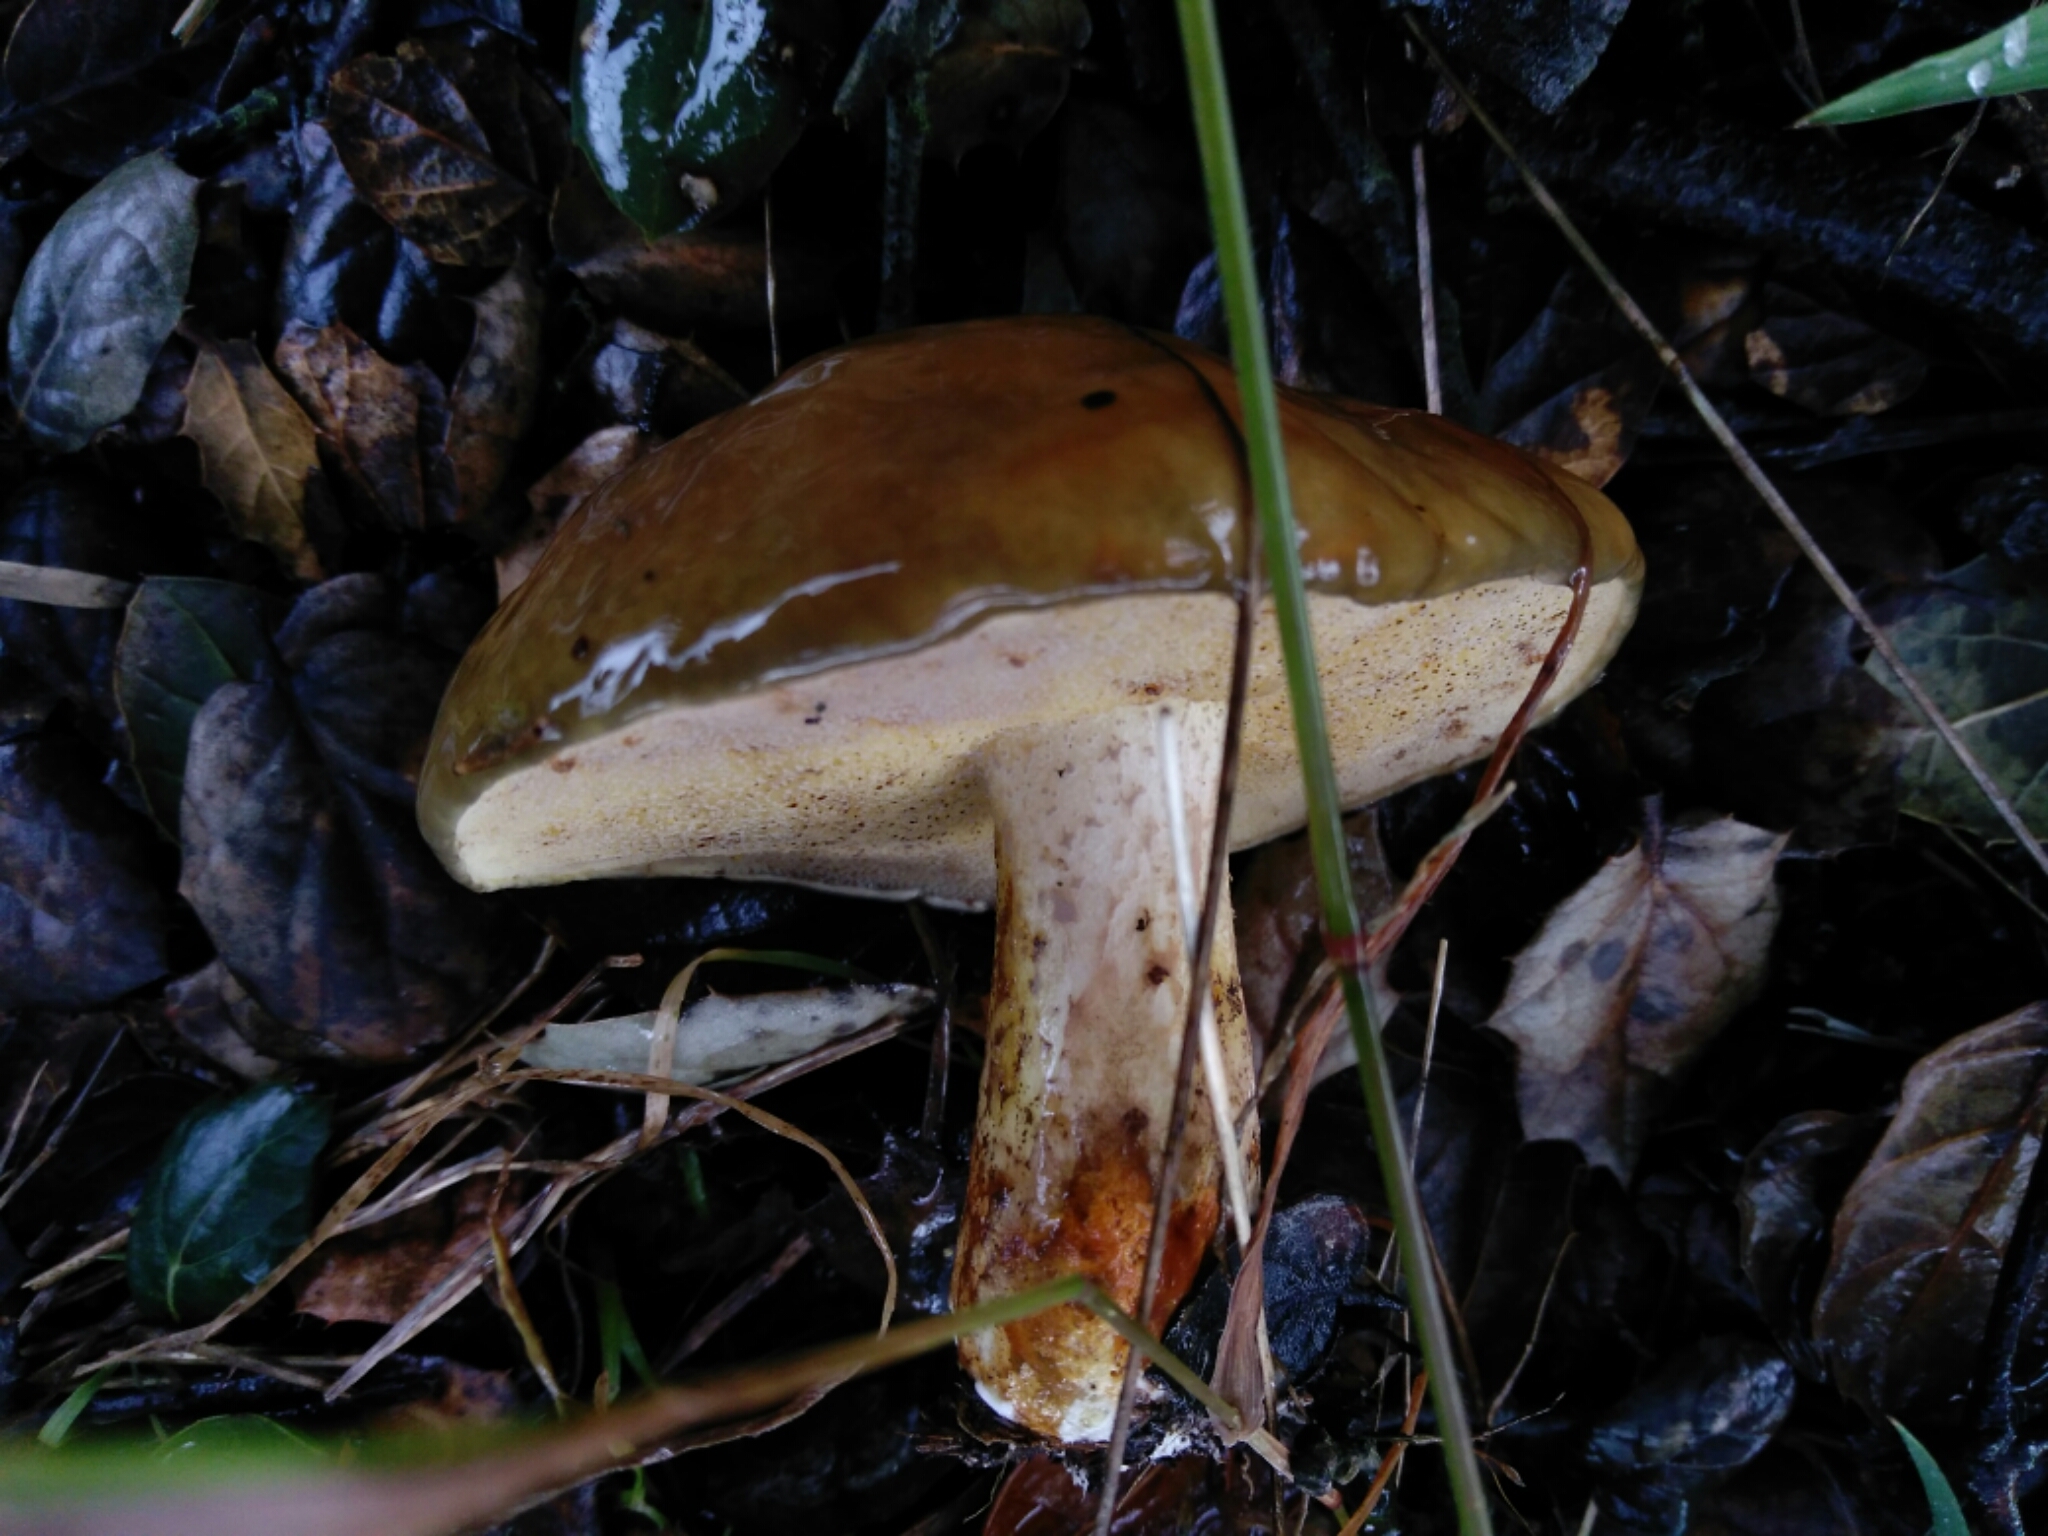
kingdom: Fungi
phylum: Basidiomycota
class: Agaricomycetes
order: Boletales
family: Suillaceae
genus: Suillus
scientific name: Suillus pungens
